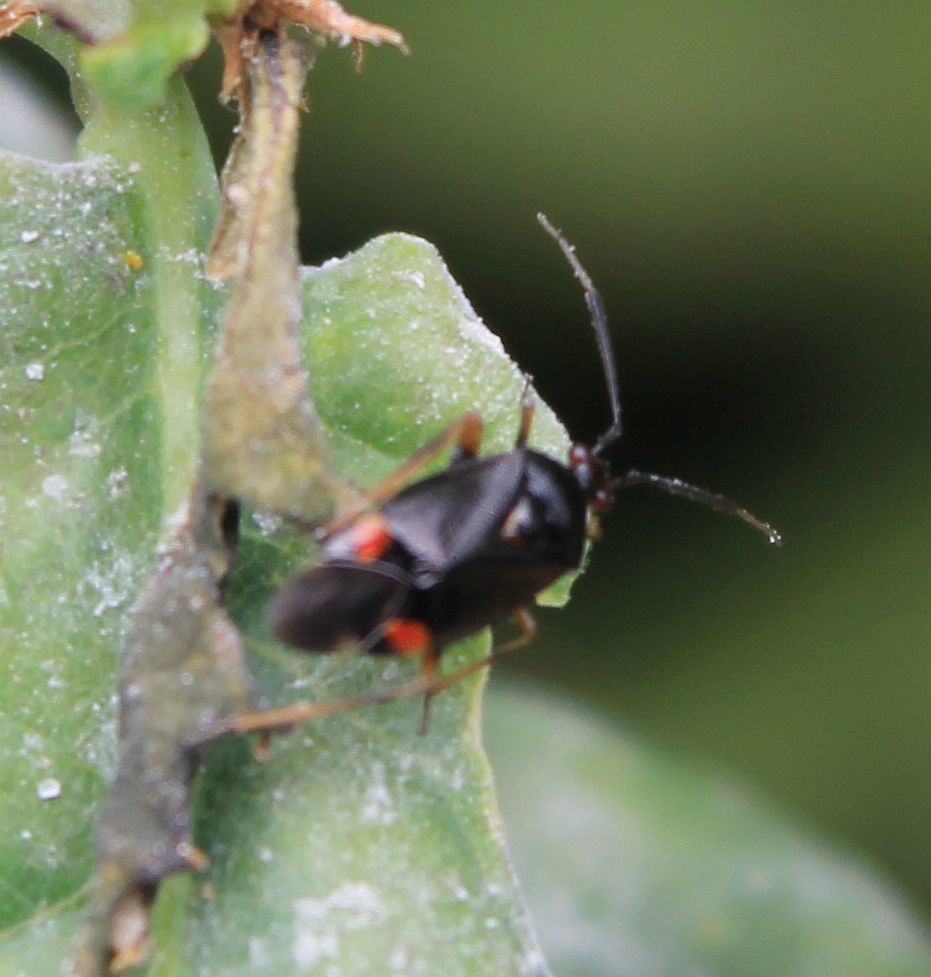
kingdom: Animalia
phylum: Arthropoda
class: Insecta
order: Hemiptera
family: Miridae
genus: Deraeocoris
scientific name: Deraeocoris ruber
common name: Plant bug
